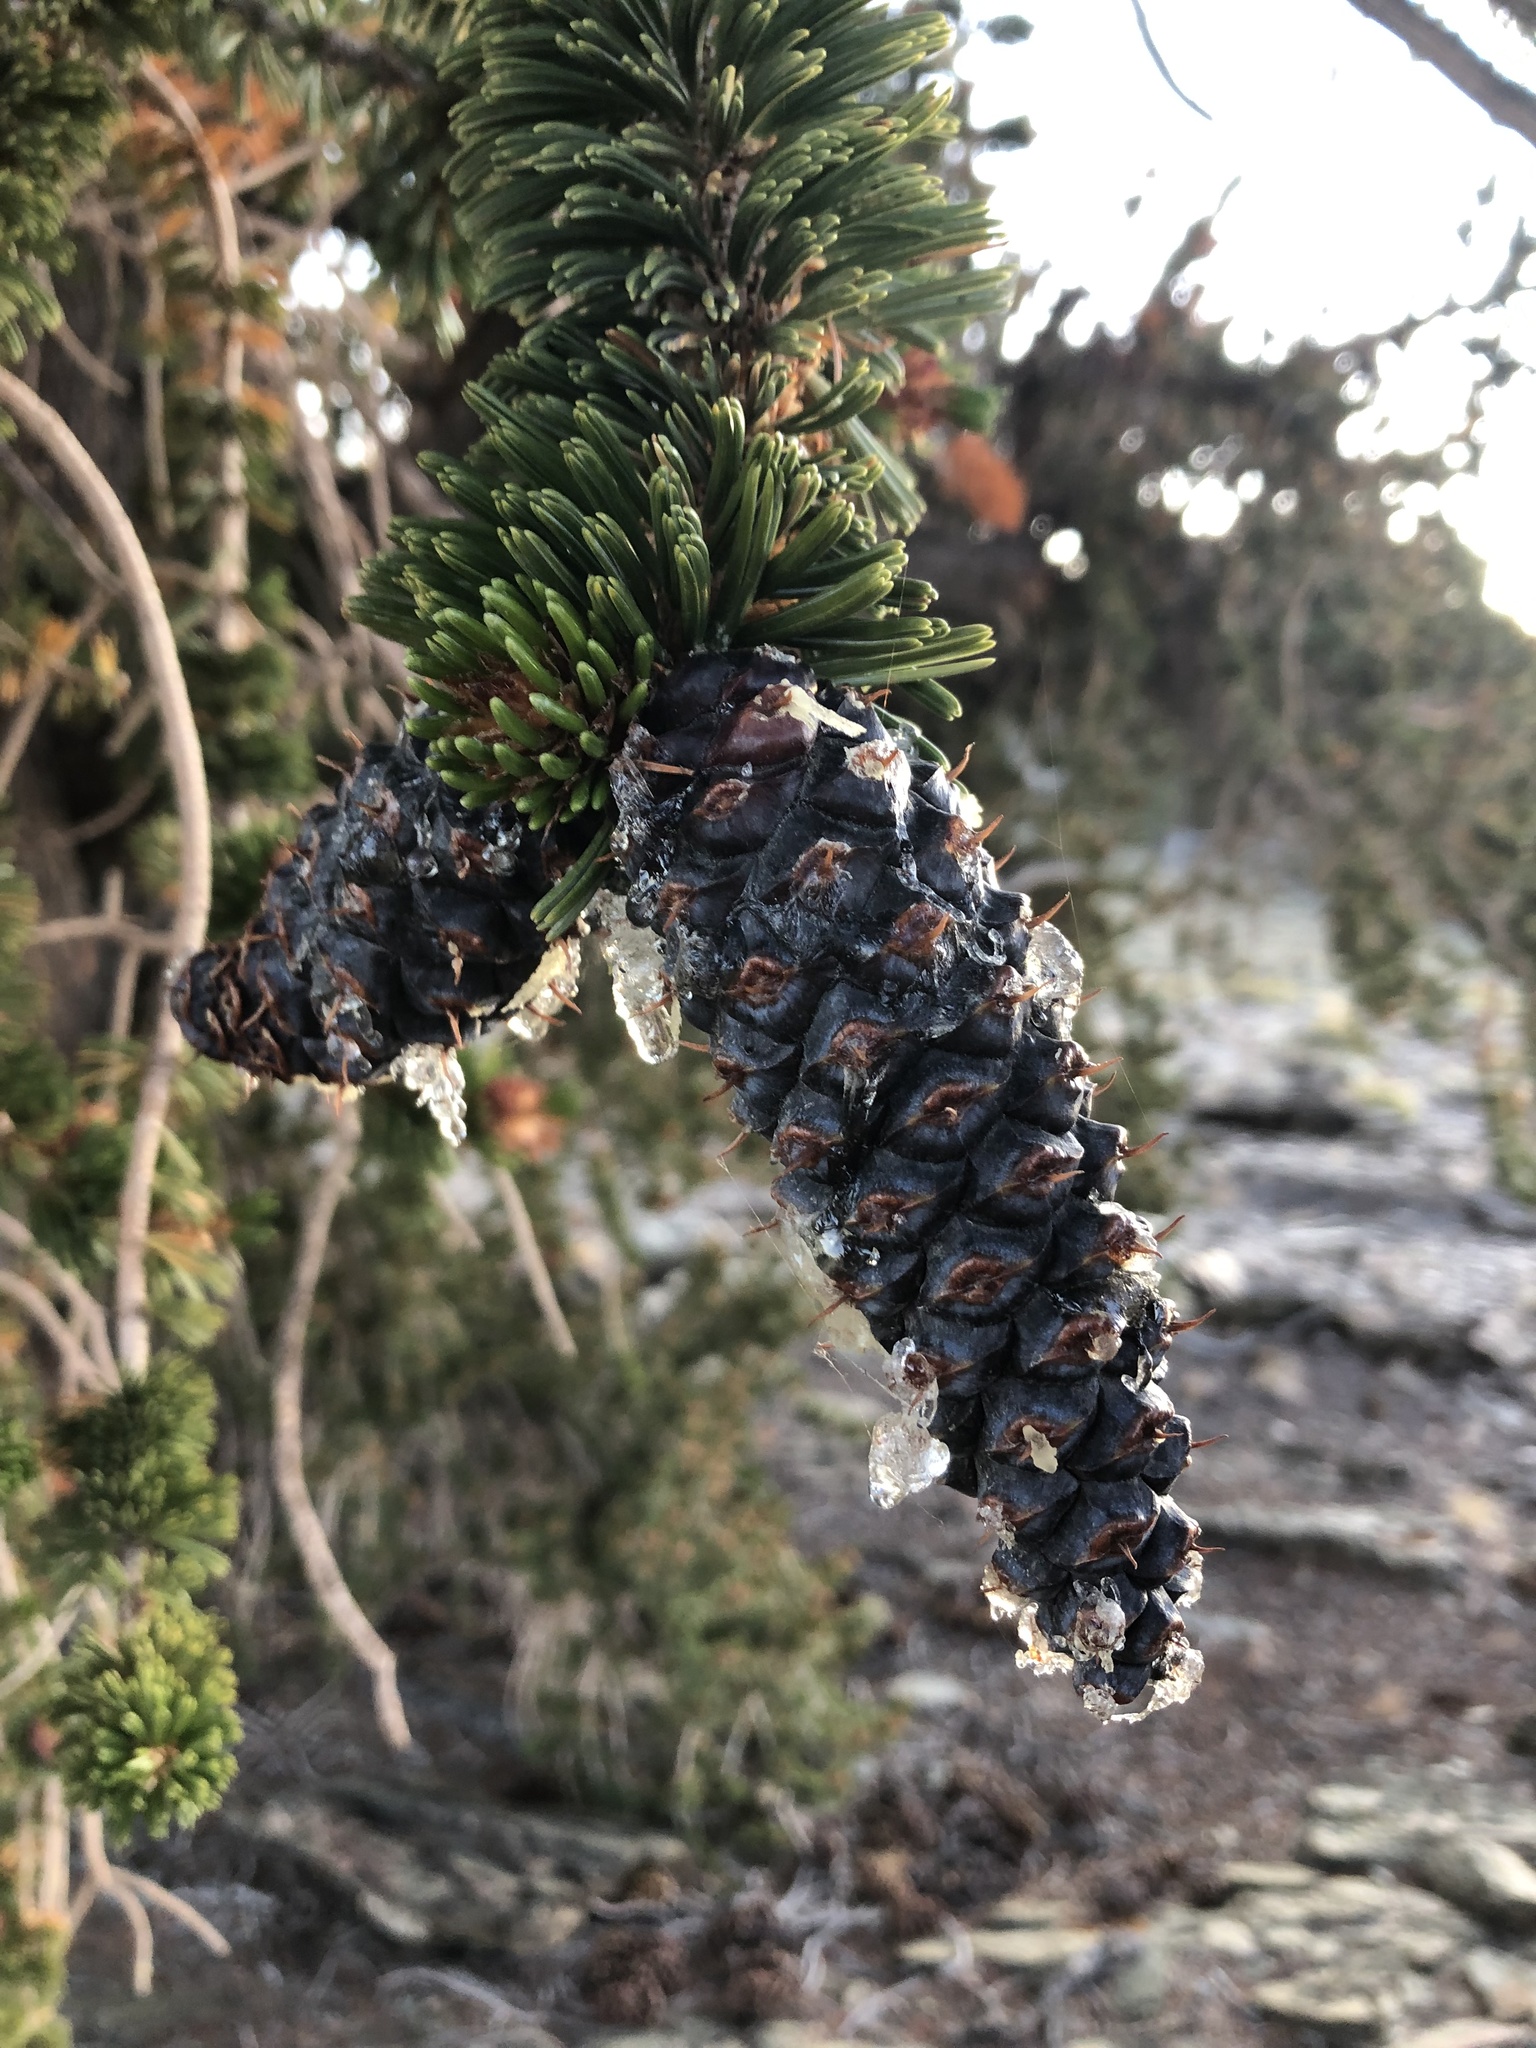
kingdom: Plantae
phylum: Tracheophyta
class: Pinopsida
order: Pinales
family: Pinaceae
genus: Pinus
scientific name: Pinus longaeva
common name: Intermountain bristlecone pine
